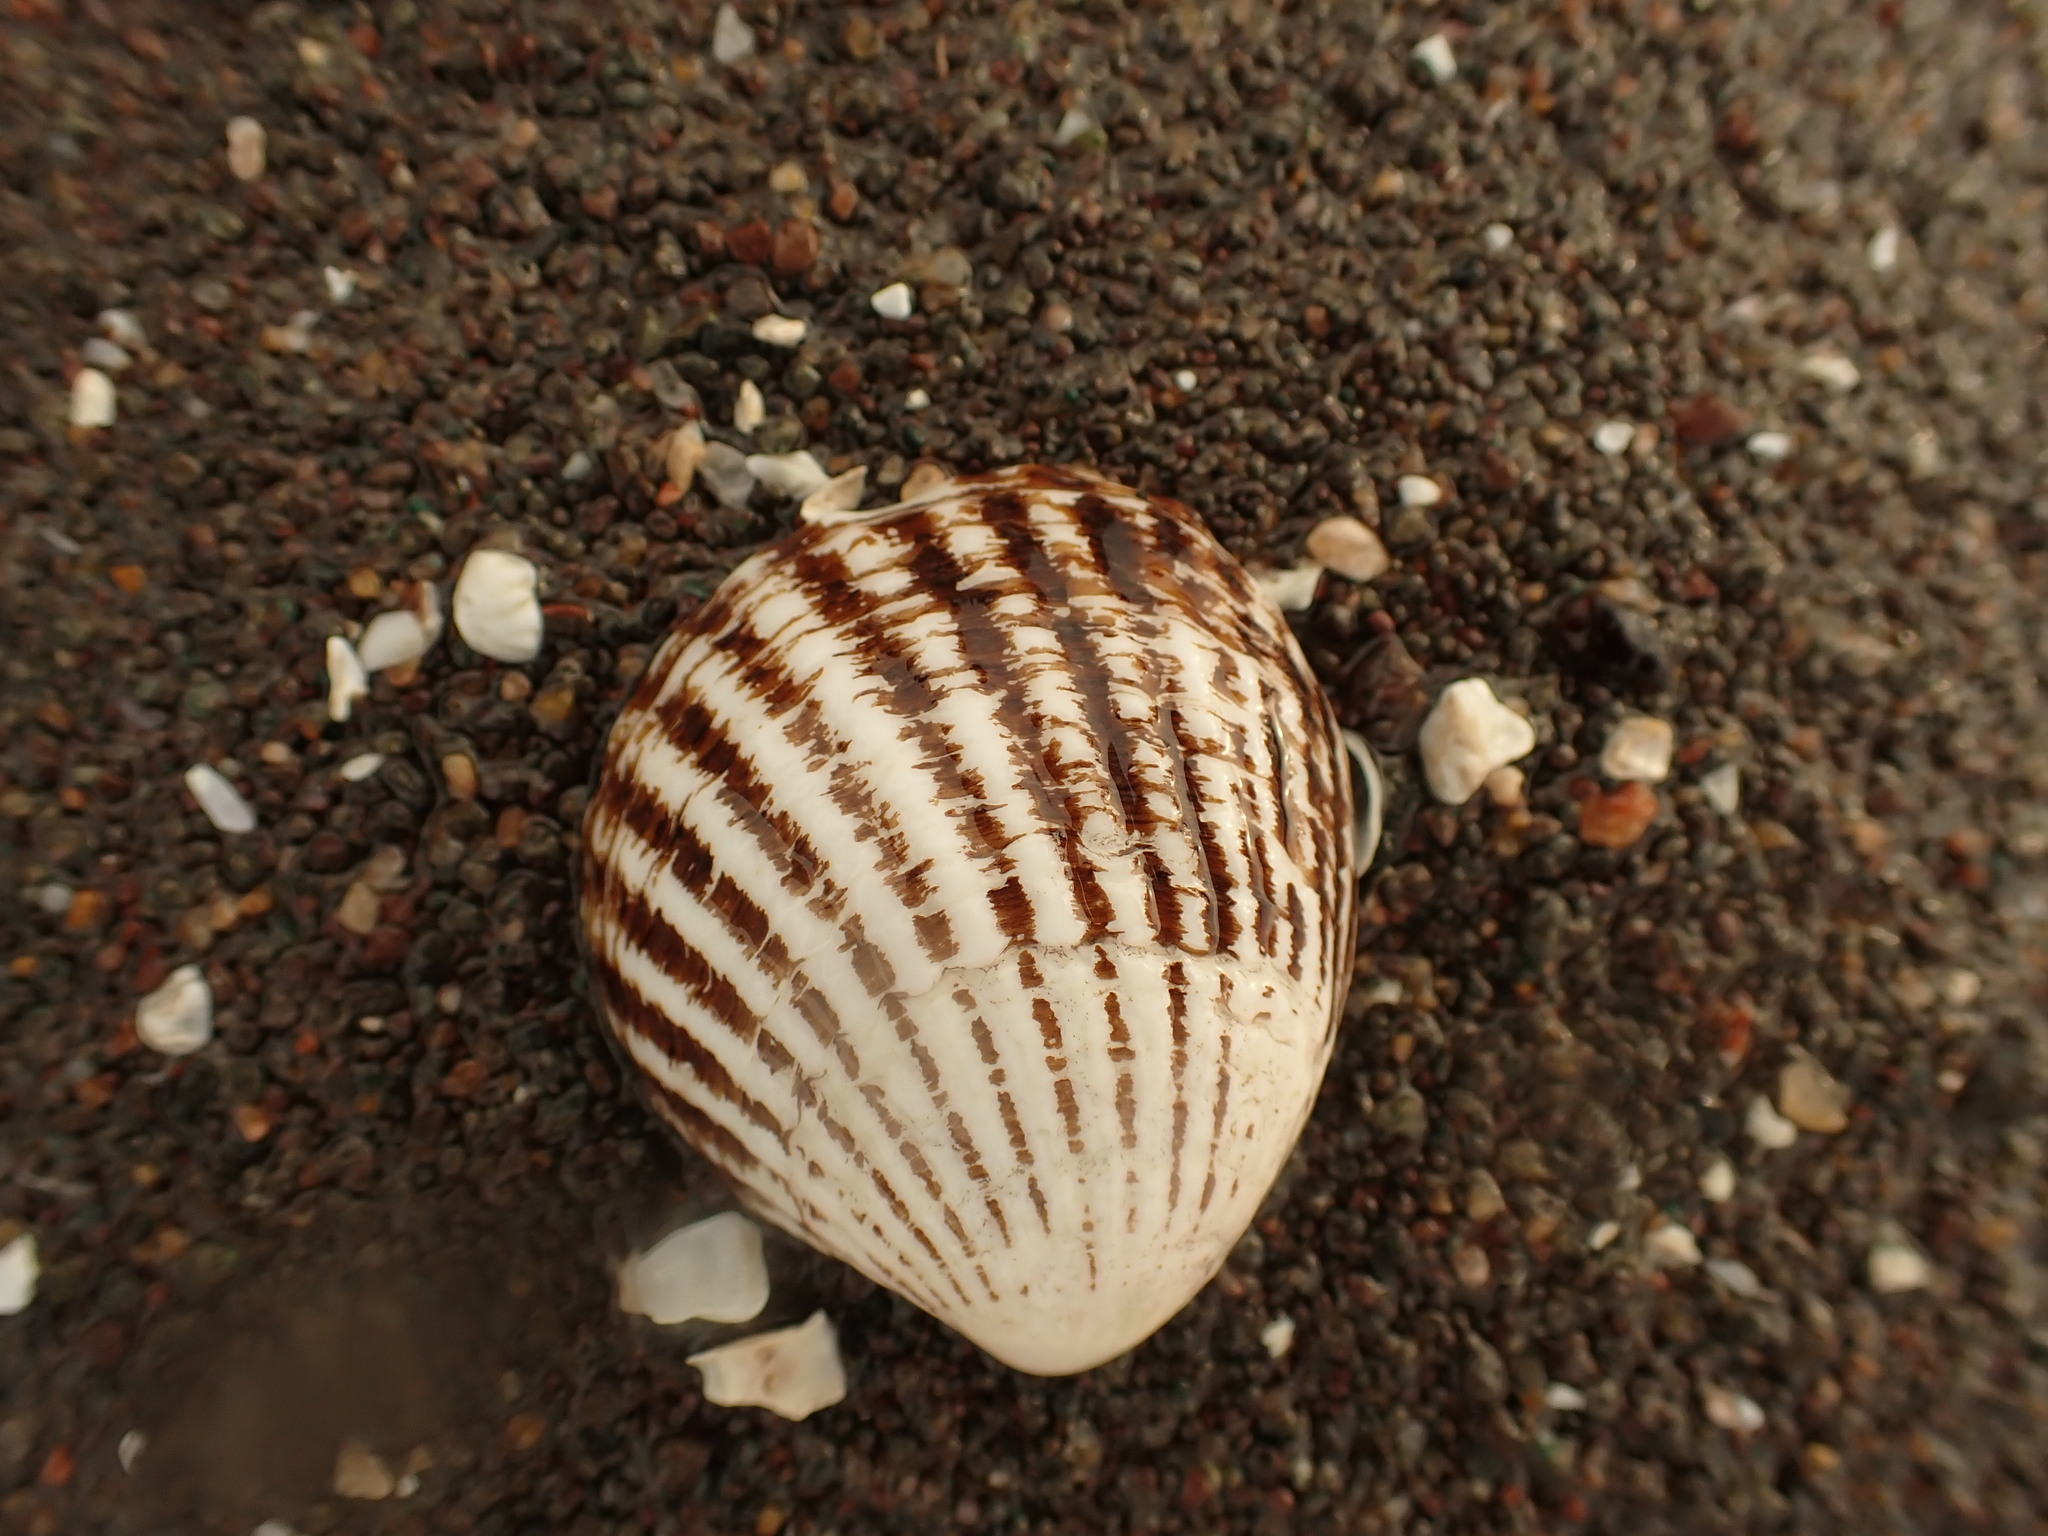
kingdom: Animalia
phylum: Mollusca
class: Bivalvia
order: Carditida
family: Carditidae
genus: Cyclocardia
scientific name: Cyclocardia borealis
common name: Northern cyclocardia
